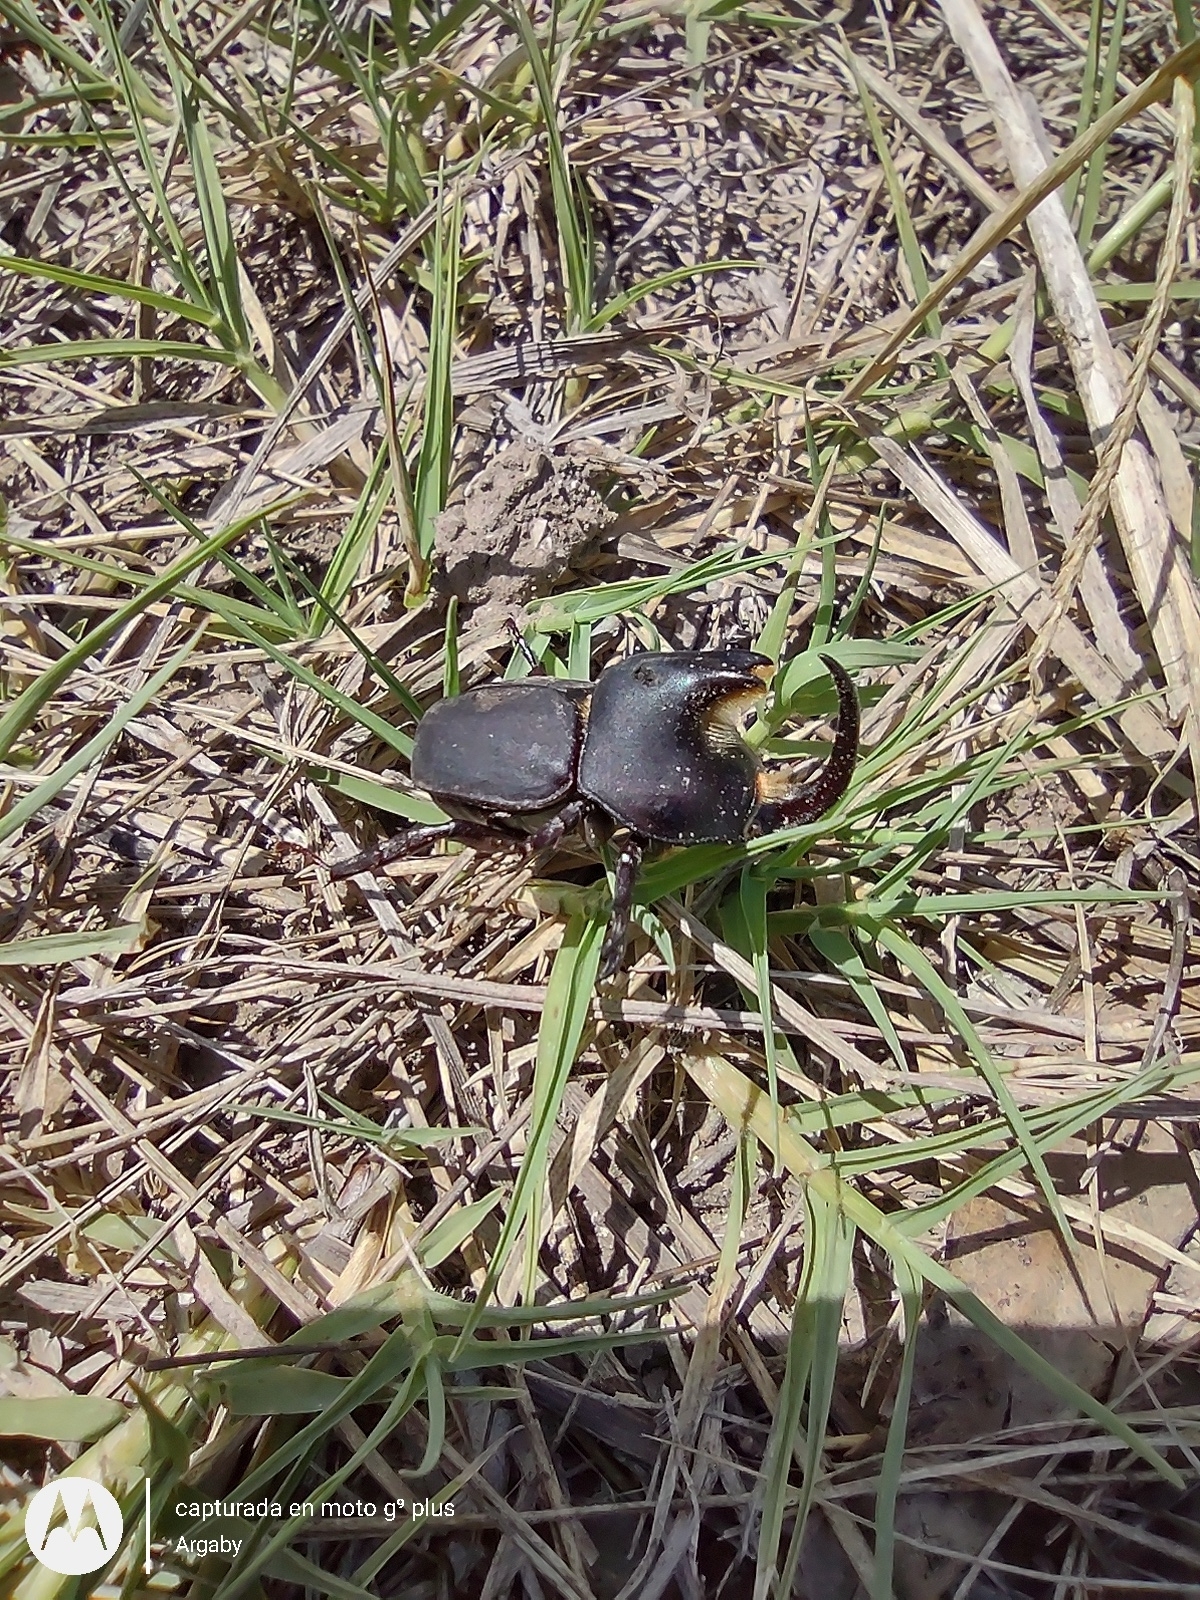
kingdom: Animalia
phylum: Arthropoda
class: Insecta
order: Coleoptera
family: Scarabaeidae
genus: Diloboderus
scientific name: Diloboderus abderus
